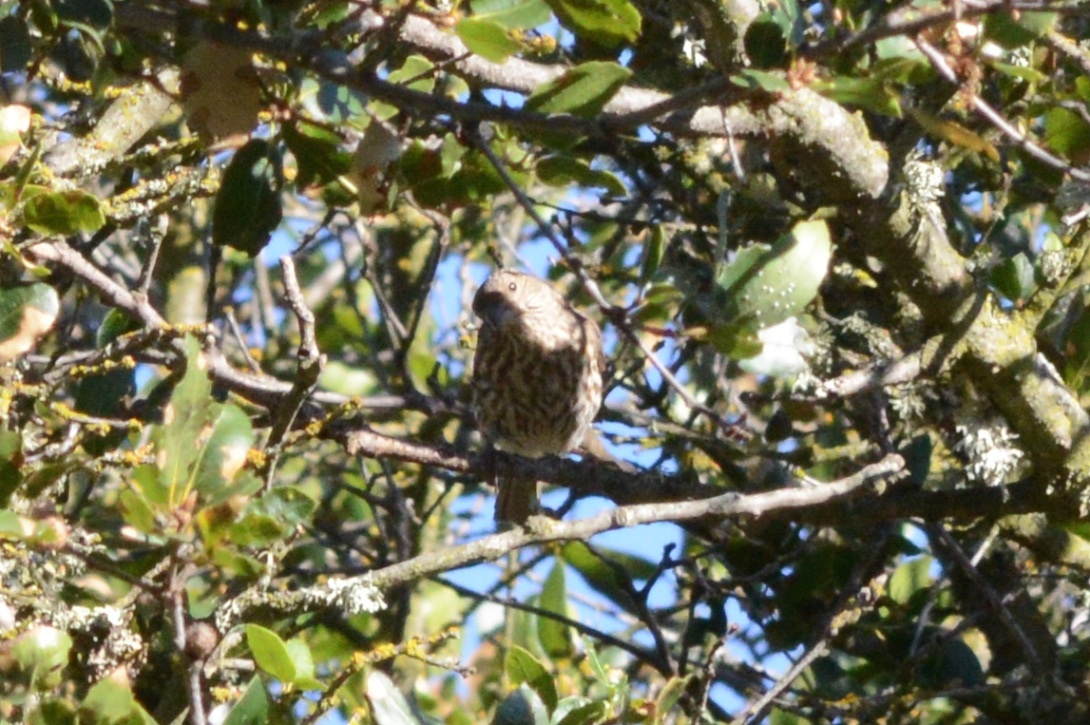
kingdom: Animalia
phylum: Chordata
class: Aves
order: Passeriformes
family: Fringillidae
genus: Haemorhous
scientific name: Haemorhous mexicanus
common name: House finch
